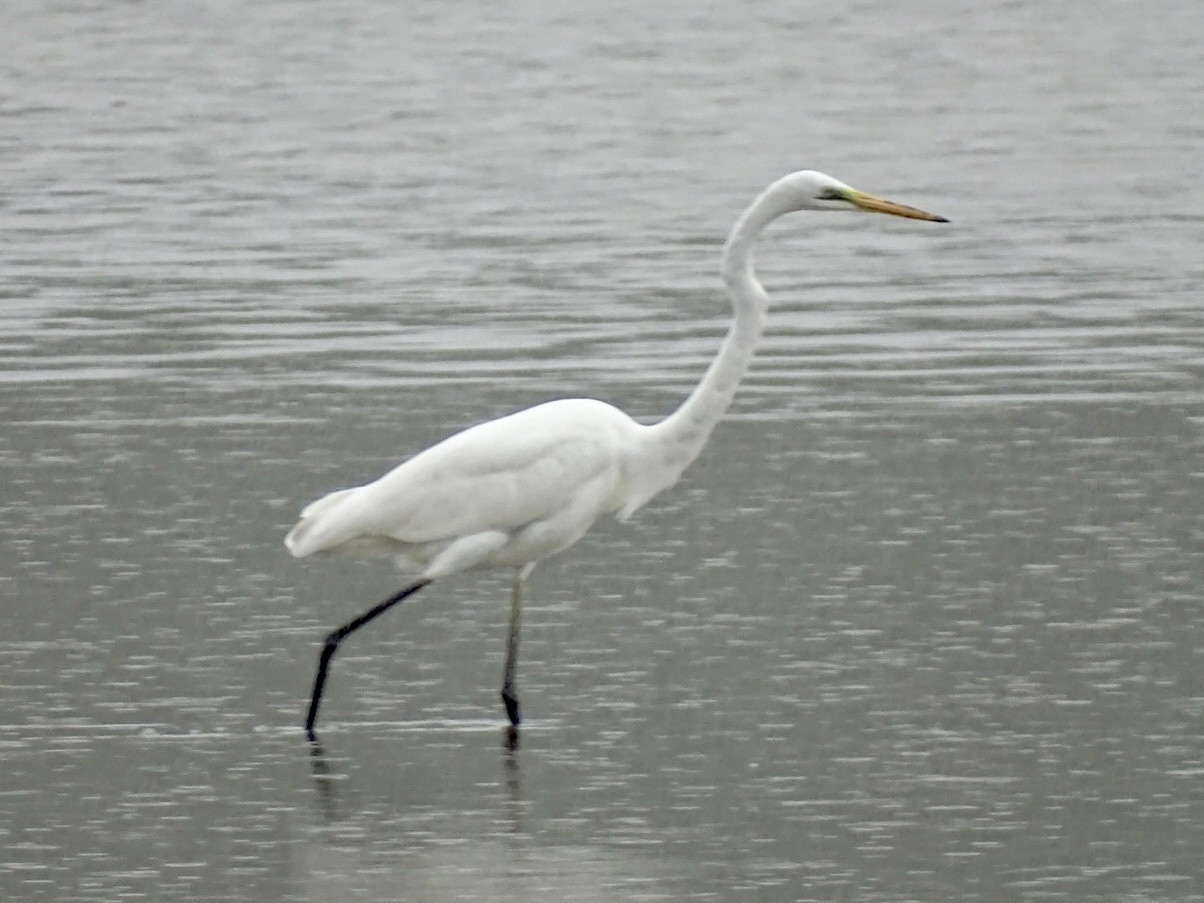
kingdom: Animalia
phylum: Chordata
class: Aves
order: Pelecaniformes
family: Ardeidae
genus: Ardea
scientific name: Ardea alba
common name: Great egret
